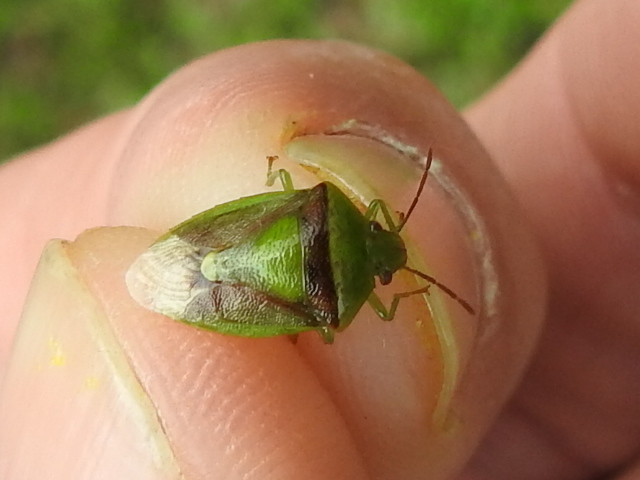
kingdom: Animalia
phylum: Arthropoda
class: Insecta
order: Hemiptera
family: Pentatomidae
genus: Banasa
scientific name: Banasa dimidiata
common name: Green burgundy stink bug
